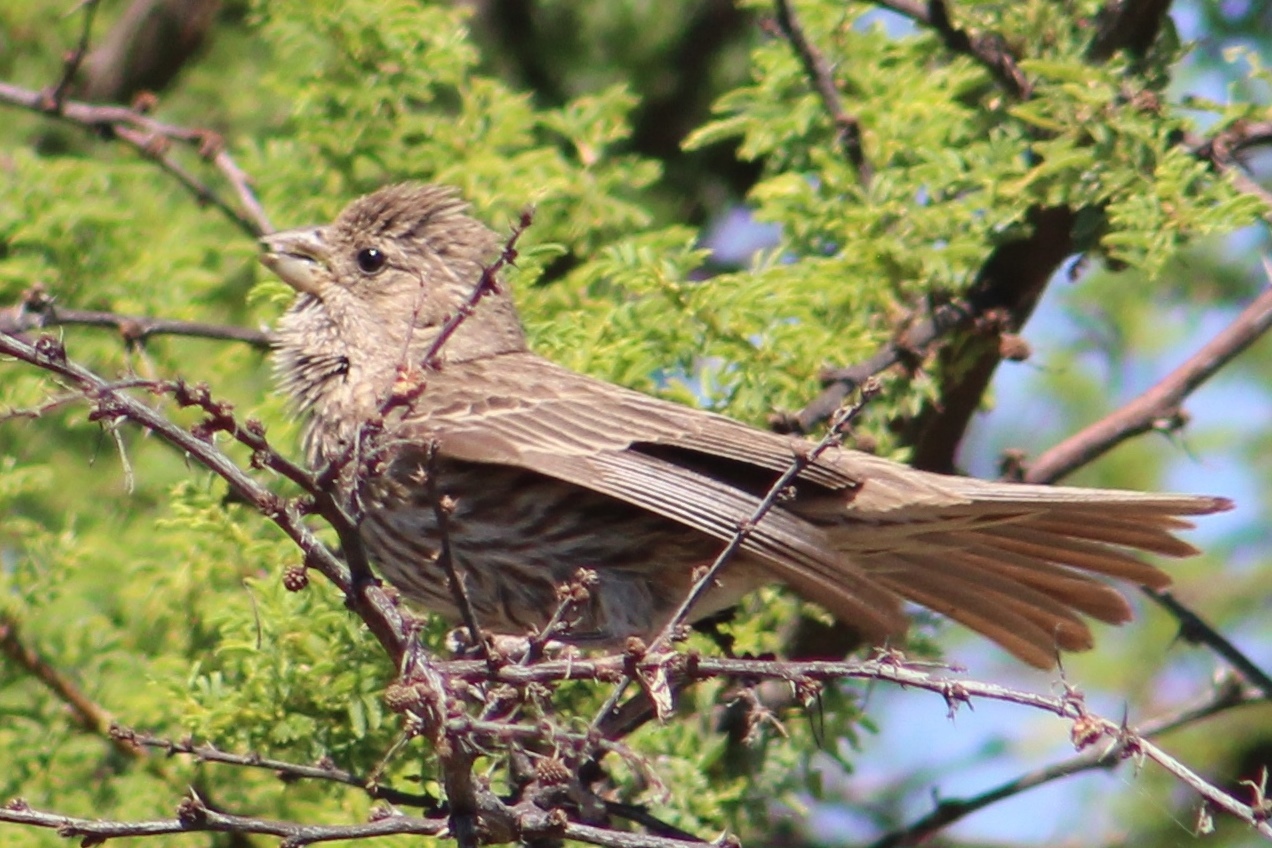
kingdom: Animalia
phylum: Chordata
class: Aves
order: Passeriformes
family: Fringillidae
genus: Haemorhous
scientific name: Haemorhous mexicanus
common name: House finch
